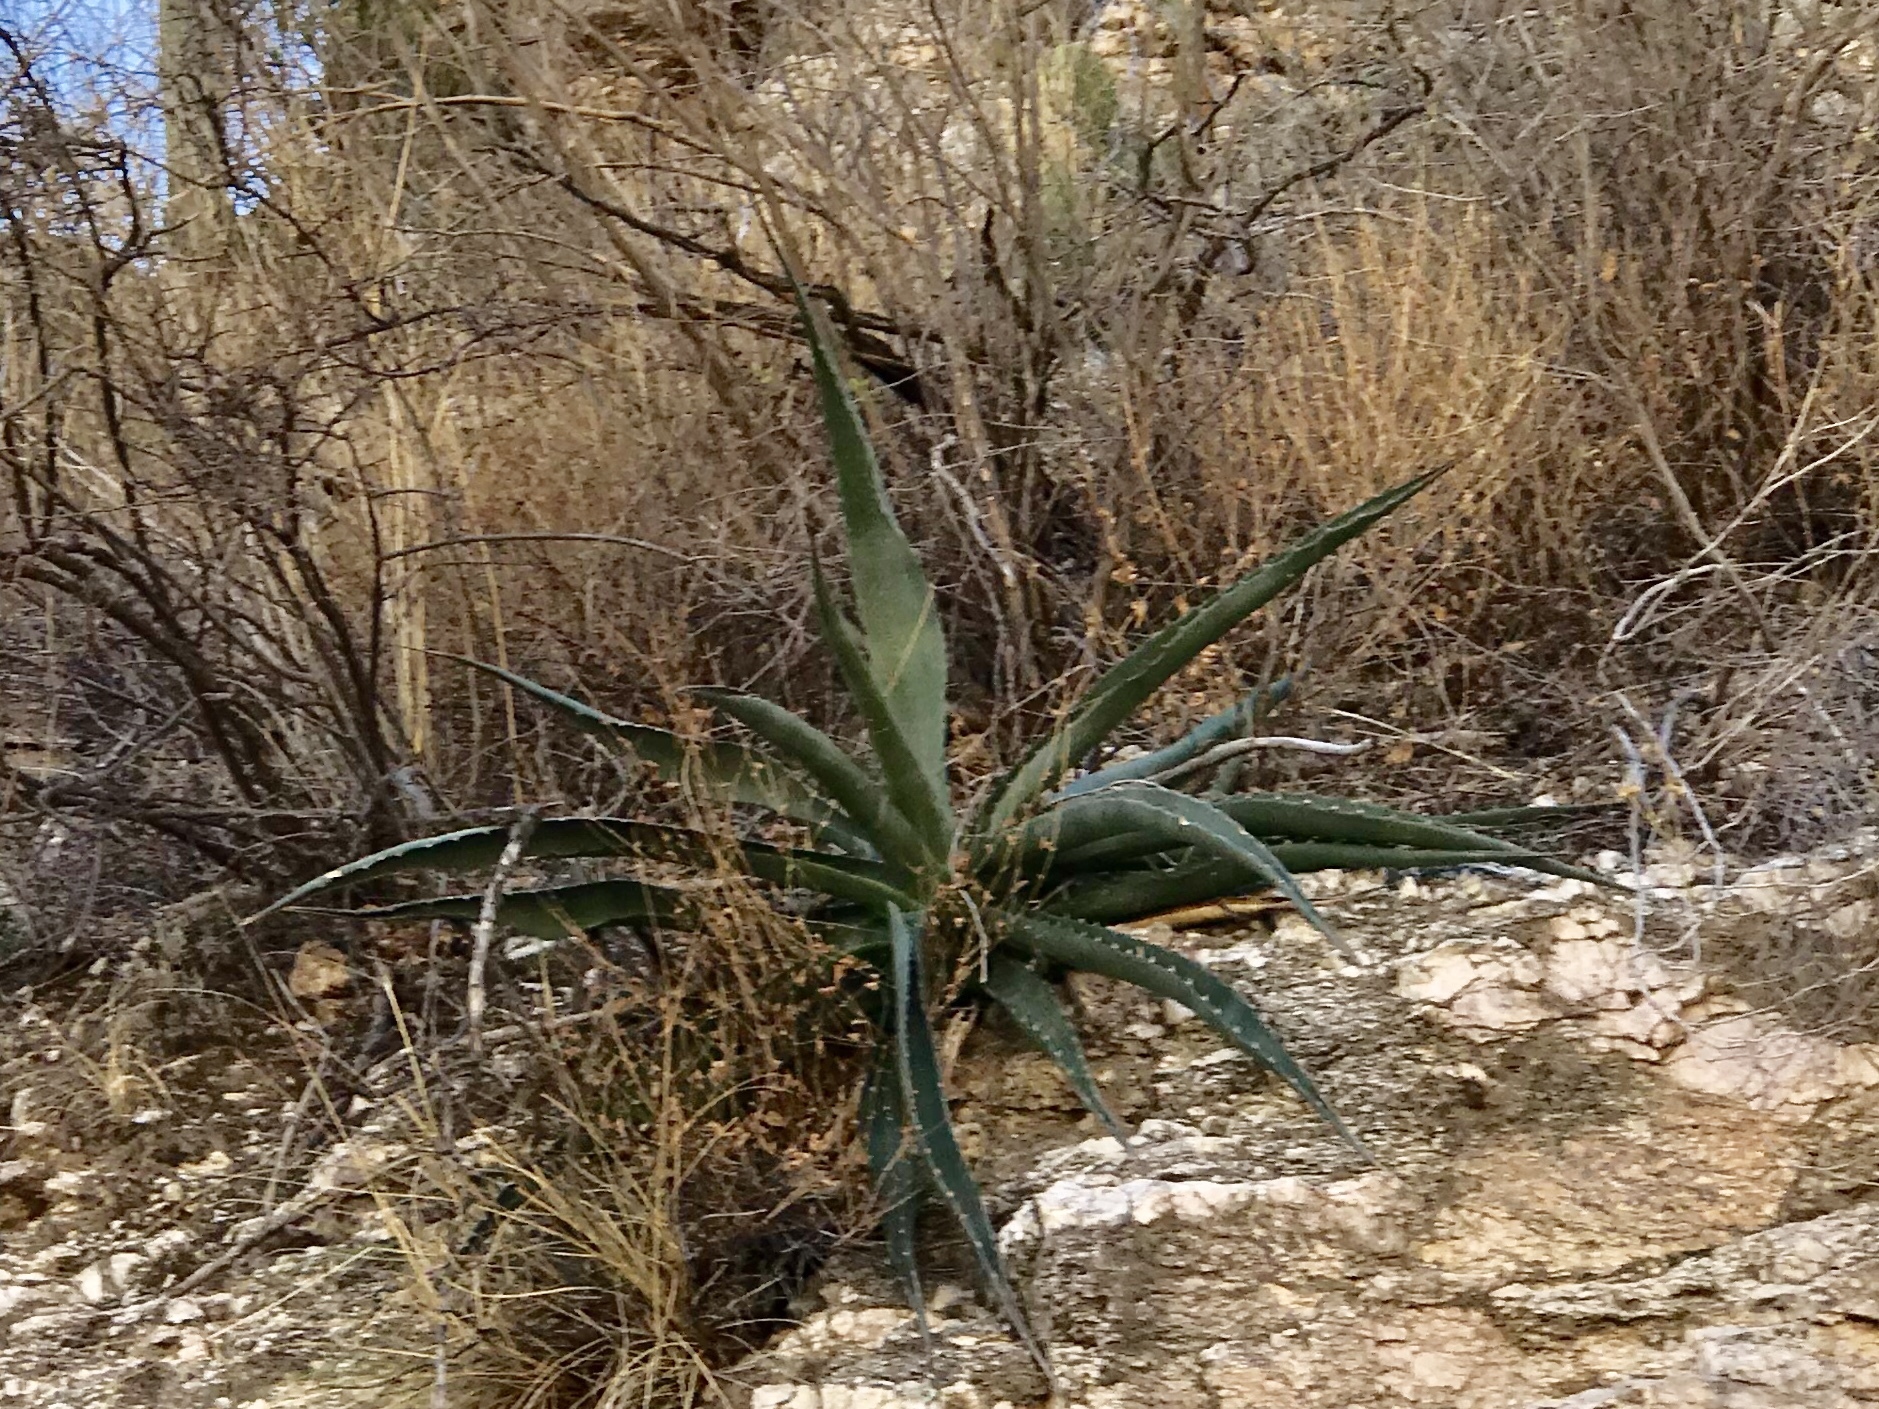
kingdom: Plantae
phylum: Tracheophyta
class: Liliopsida
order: Asparagales
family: Asparagaceae
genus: Agave
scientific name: Agave palmeri
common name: Palmer agave
